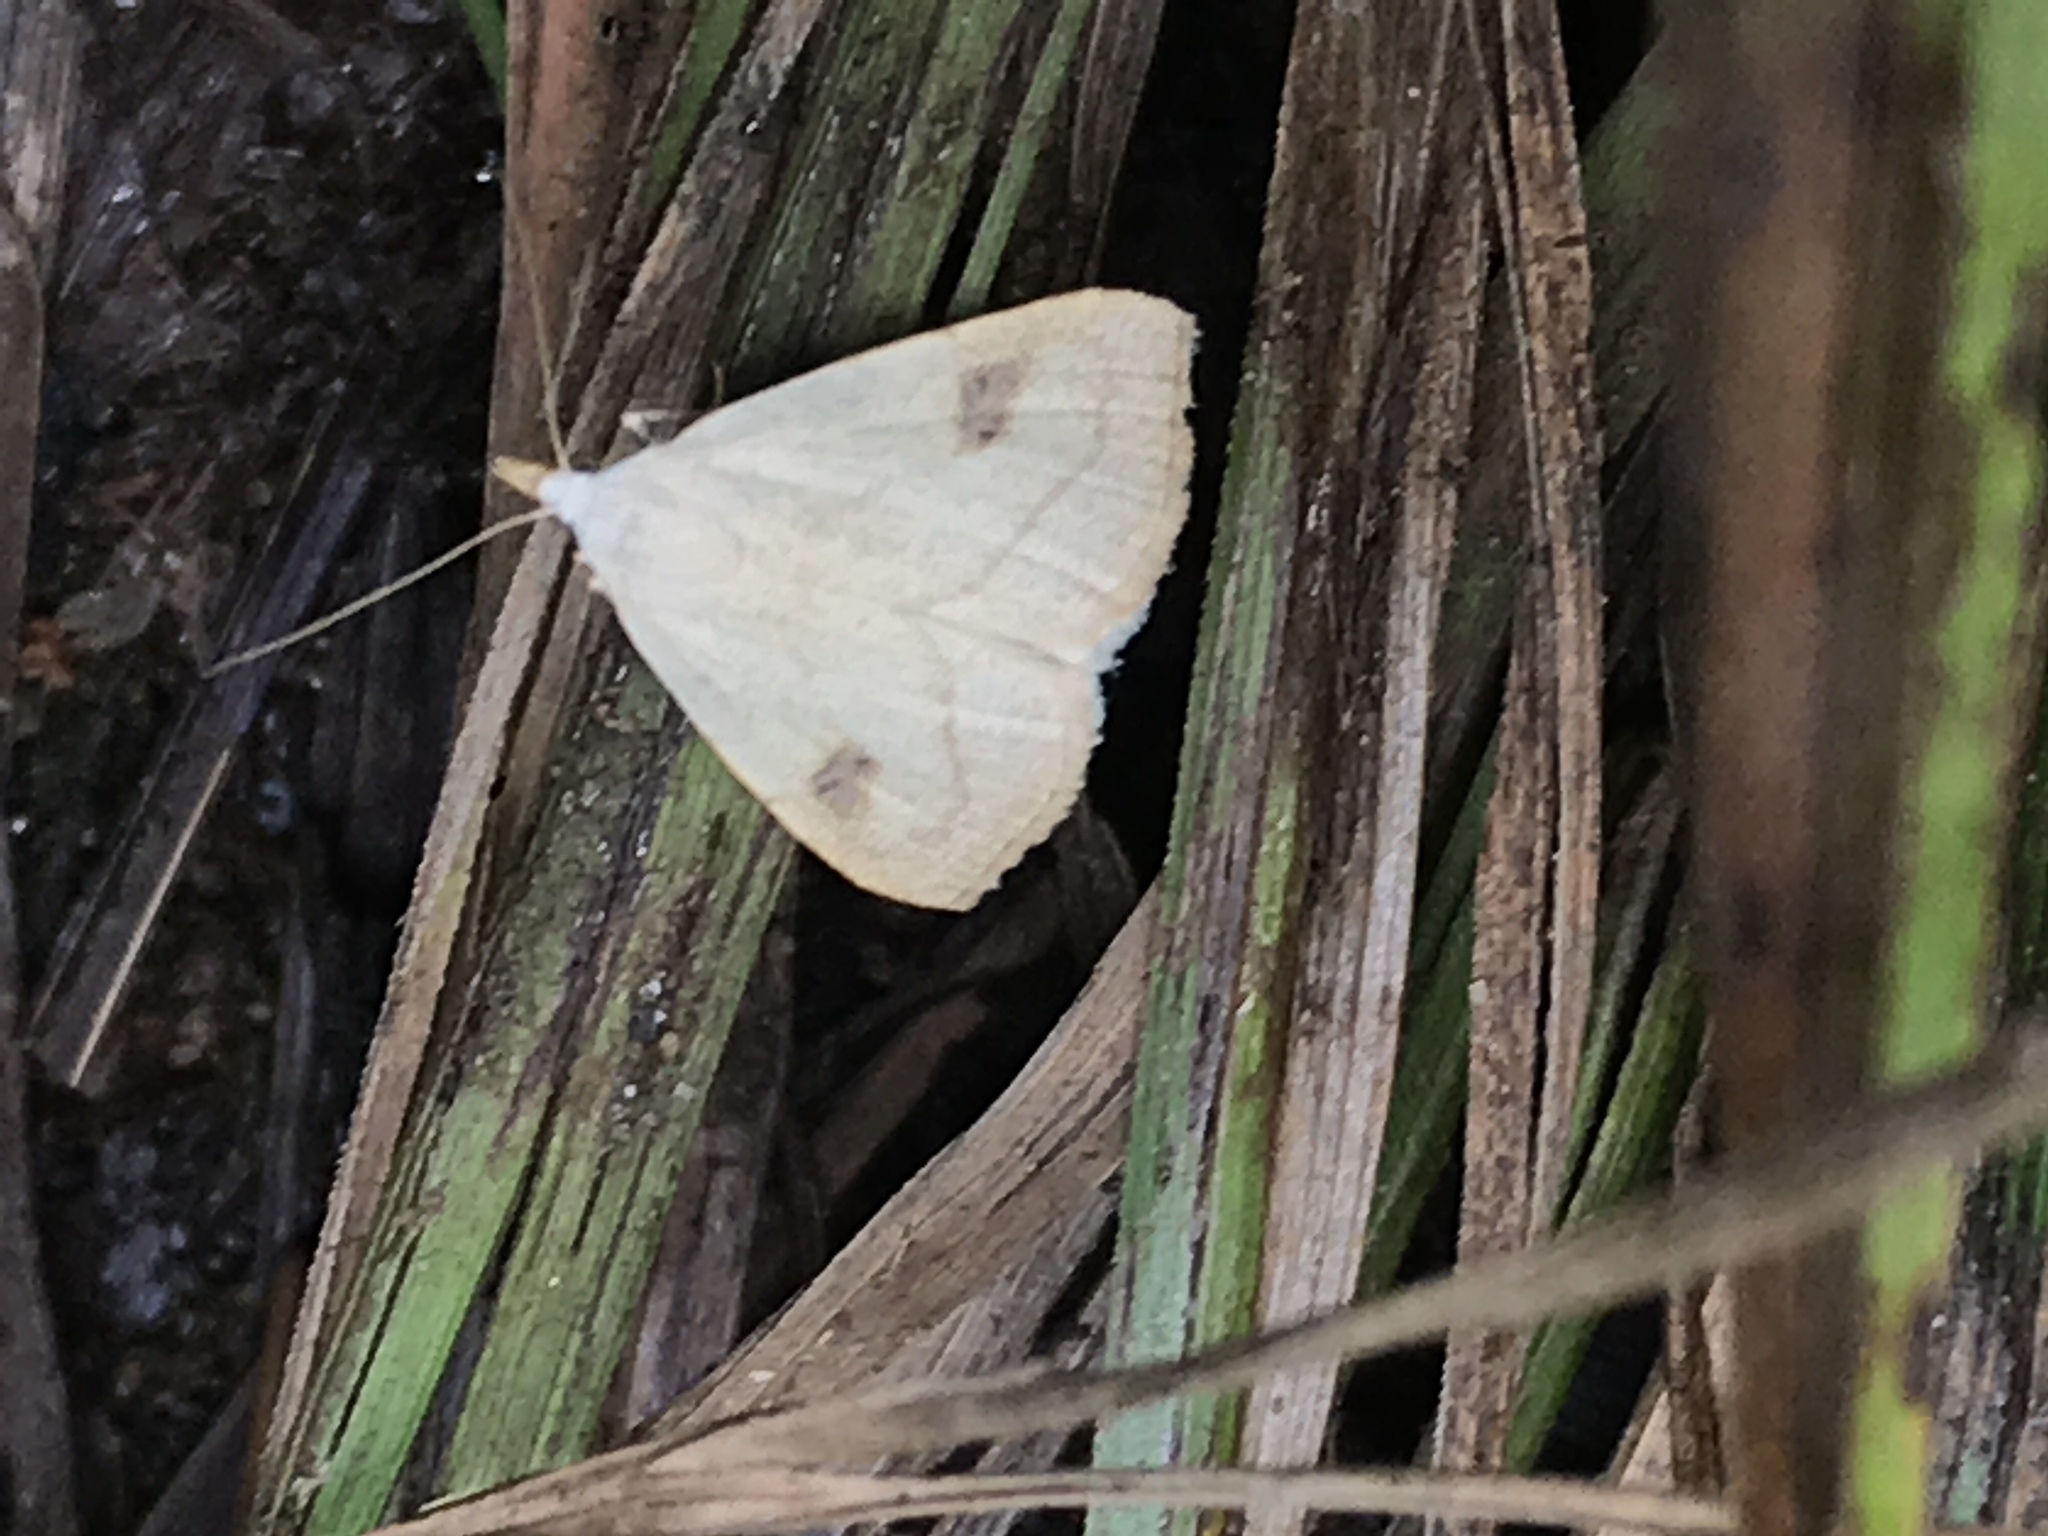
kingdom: Animalia
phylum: Arthropoda
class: Insecta
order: Lepidoptera
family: Erebidae
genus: Rivula
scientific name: Rivula propinqualis
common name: Spotted grass moth
